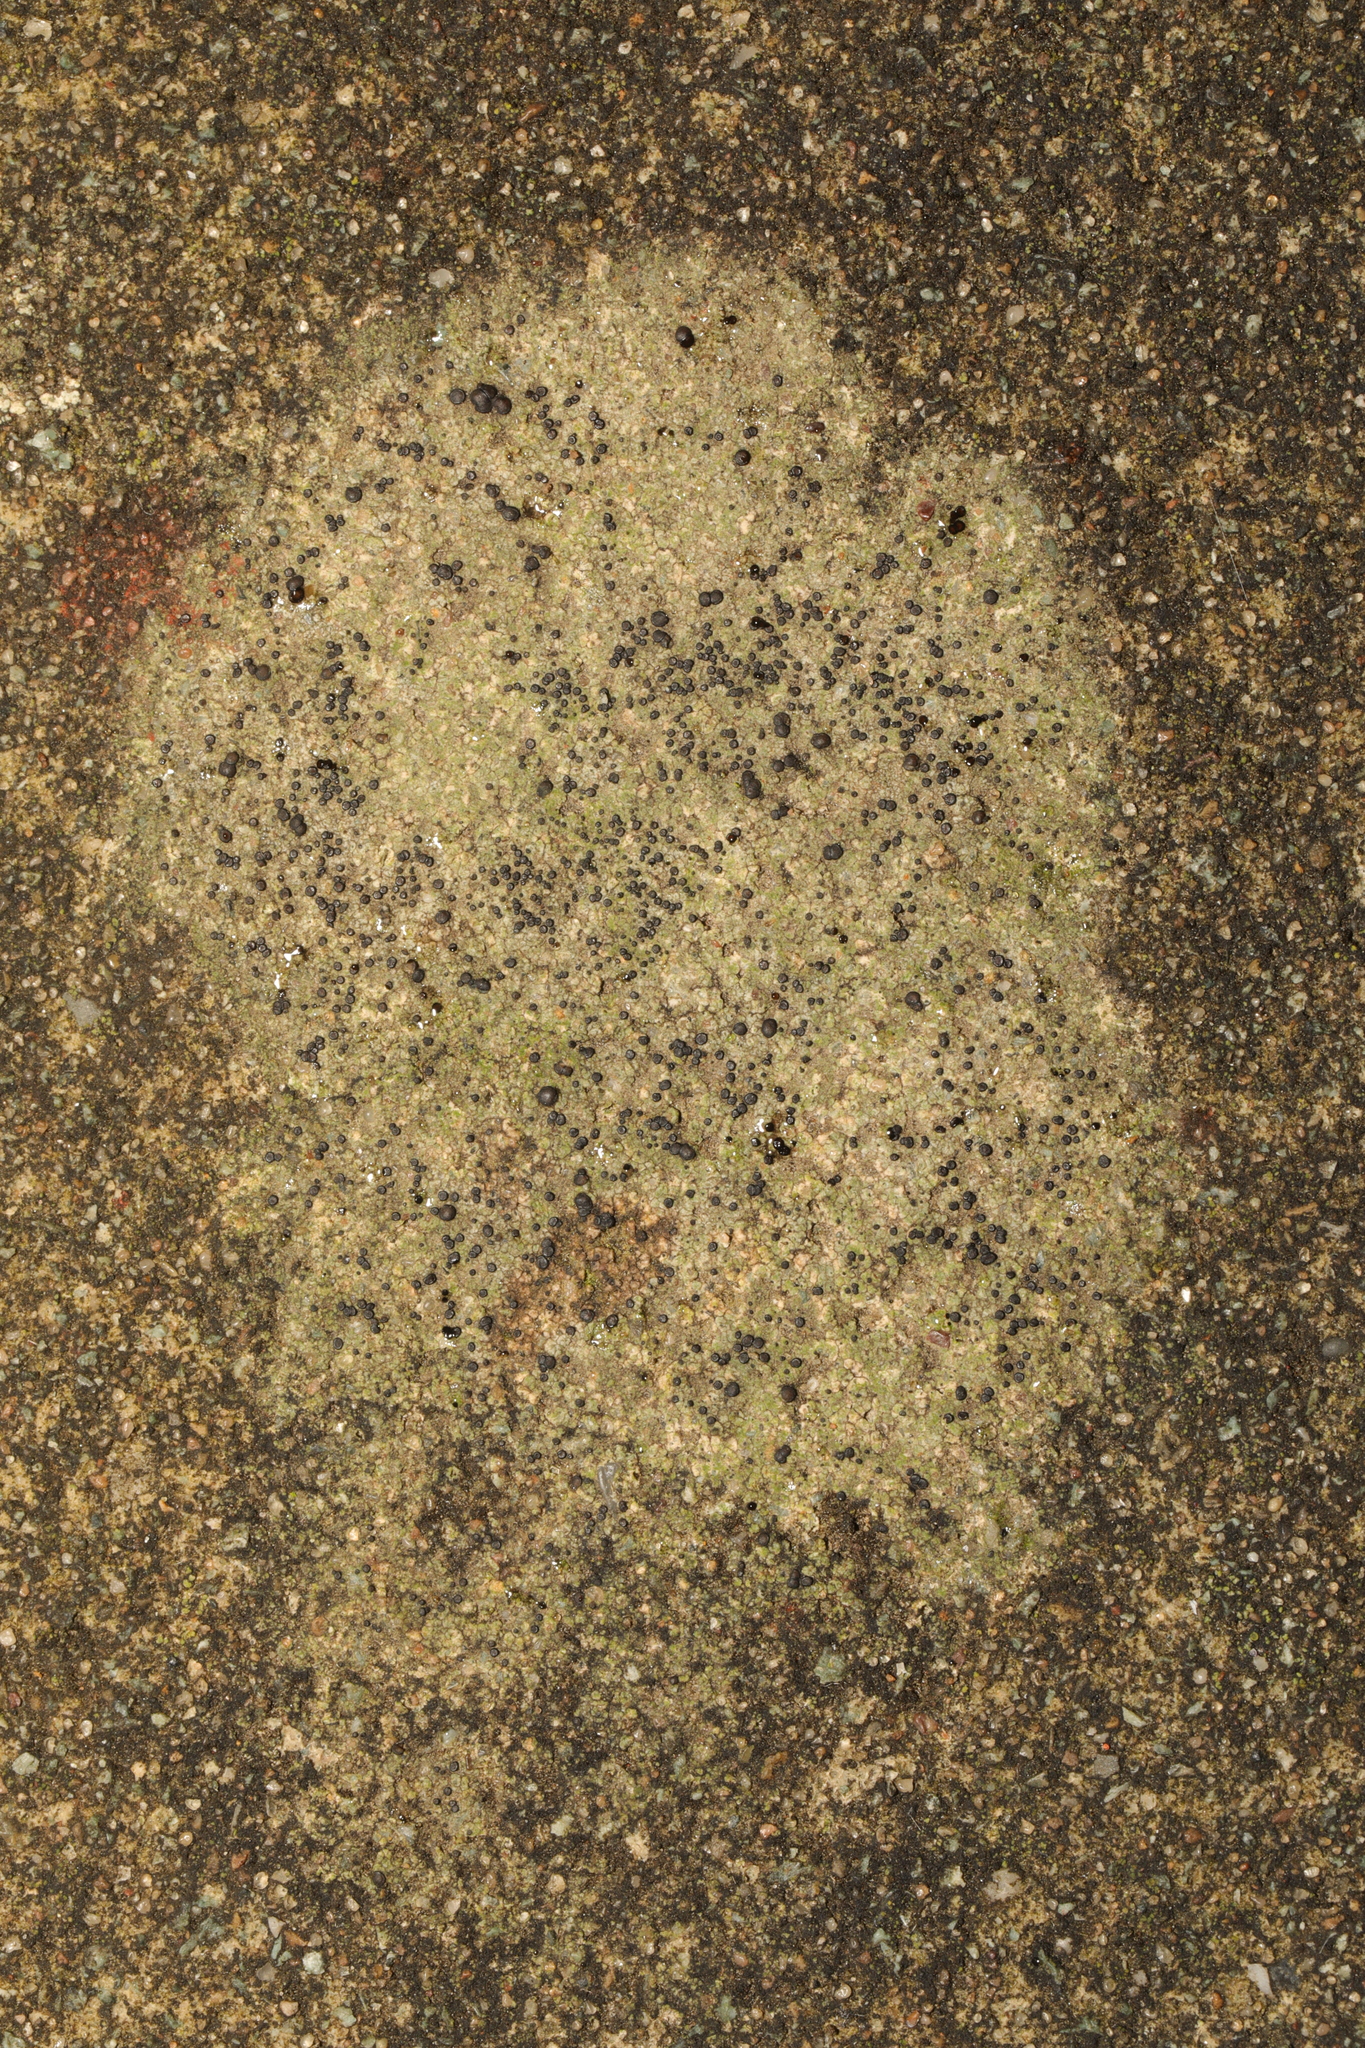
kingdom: Fungi
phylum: Ascomycota
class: Lecanoromycetes
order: Lecanorales
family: Lecanoraceae
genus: Lecidella
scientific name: Lecidella stigmatea
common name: Limestone disc lichen
